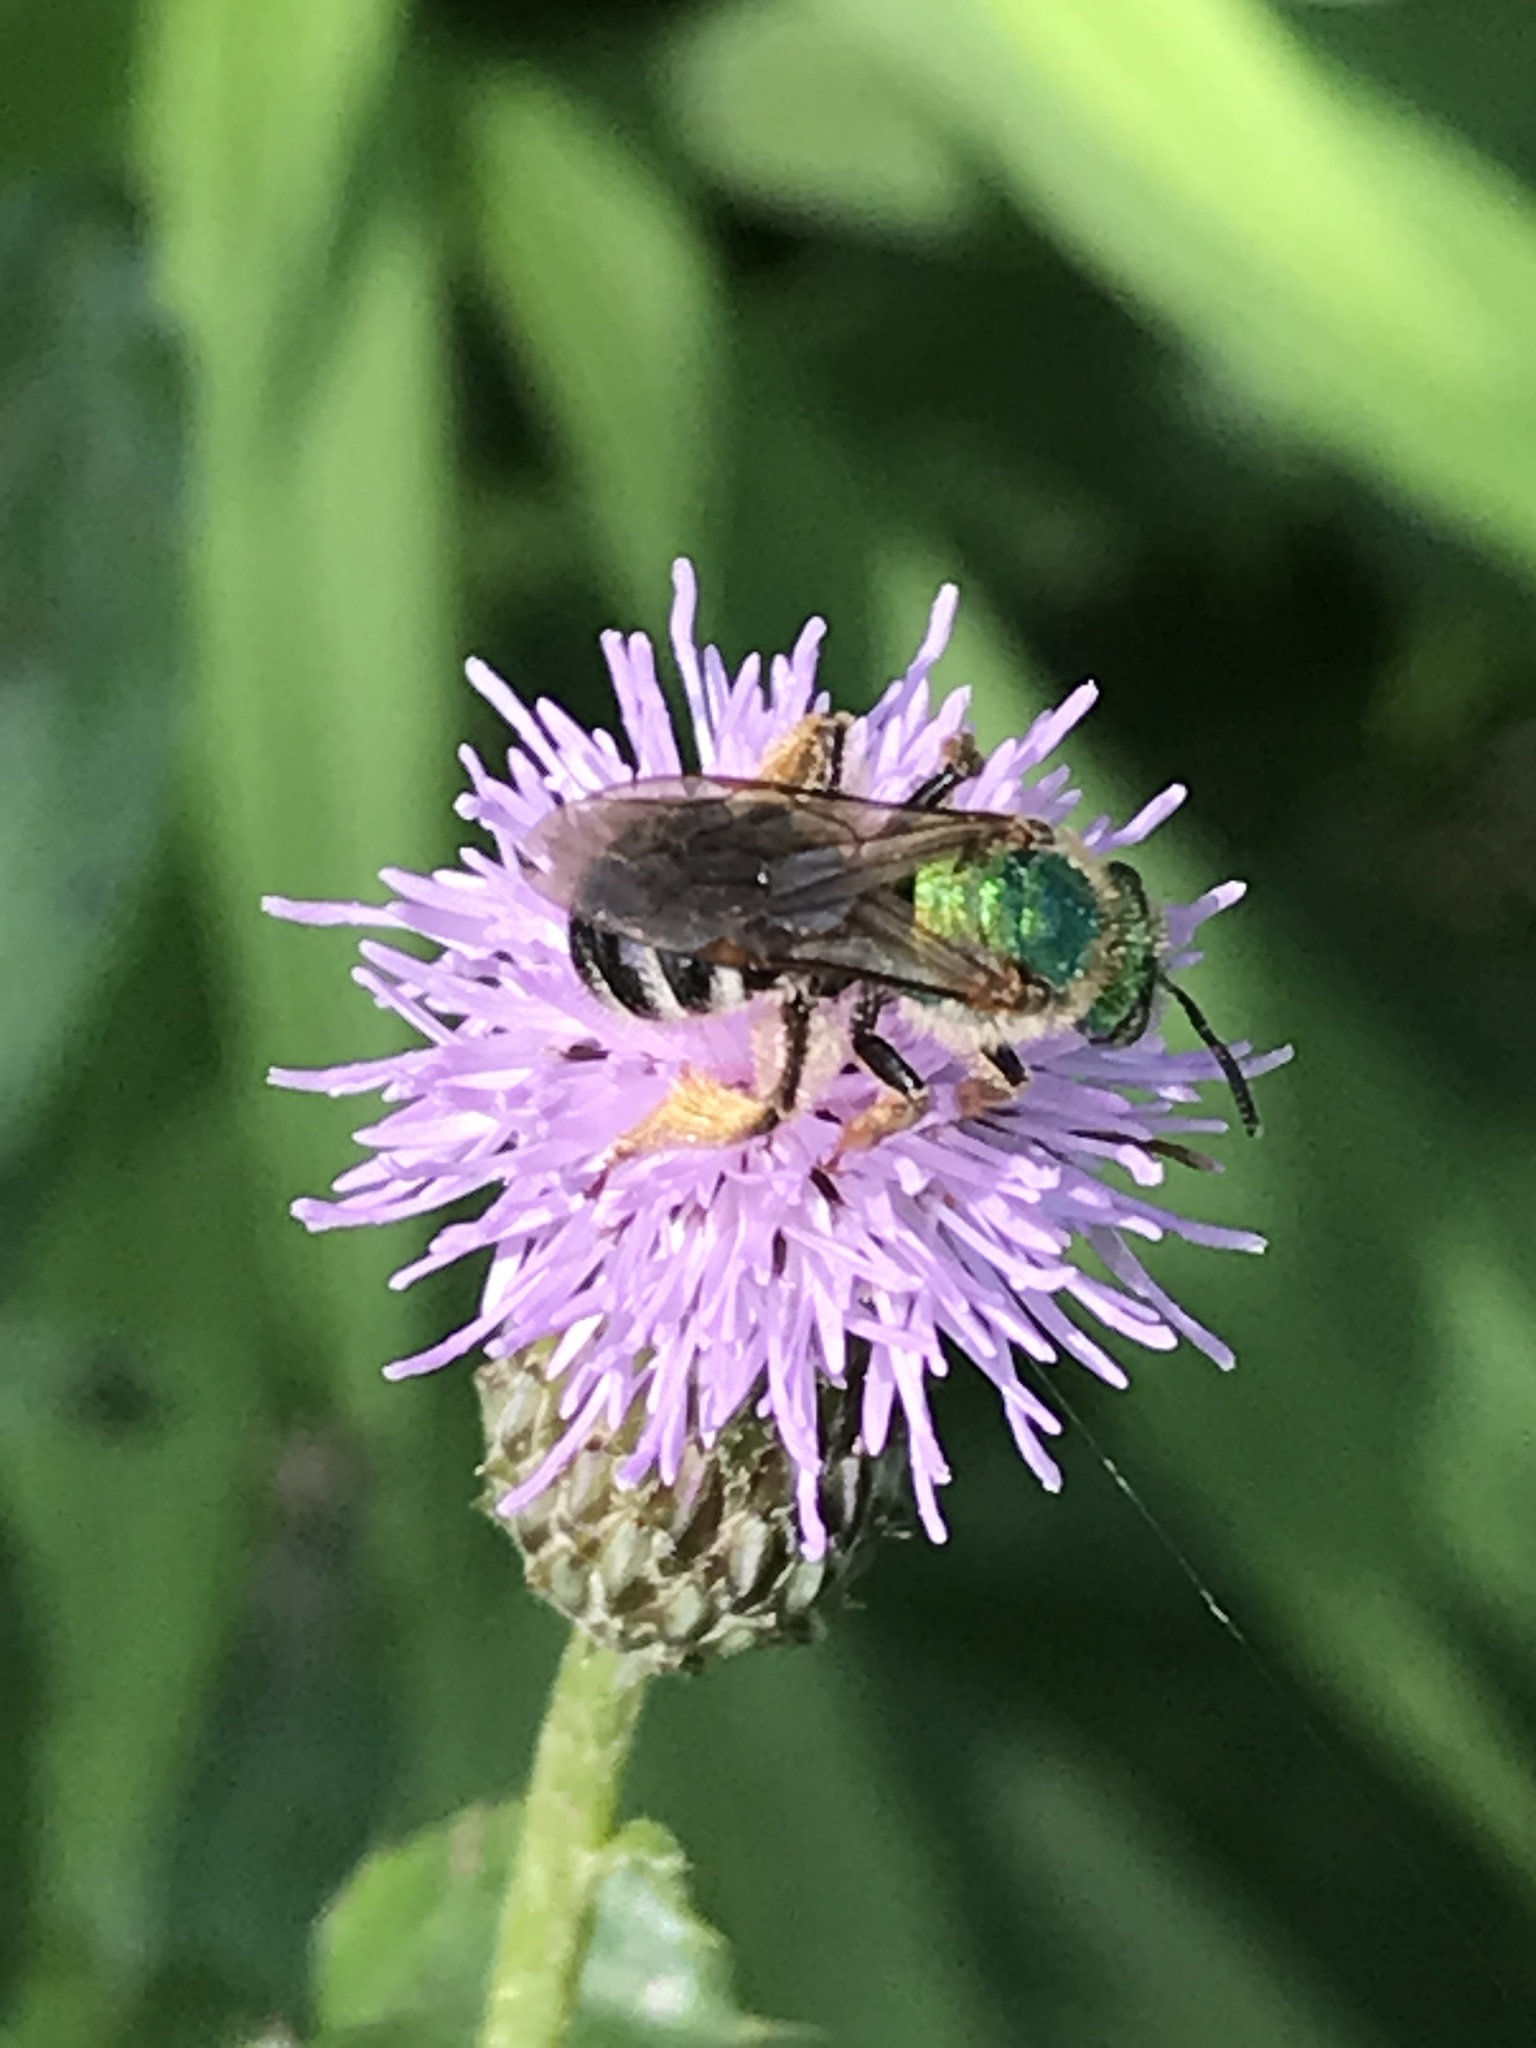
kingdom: Animalia
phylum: Arthropoda
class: Insecta
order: Hymenoptera
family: Halictidae
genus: Agapostemon
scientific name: Agapostemon virescens
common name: Bicolored striped sweat bee
